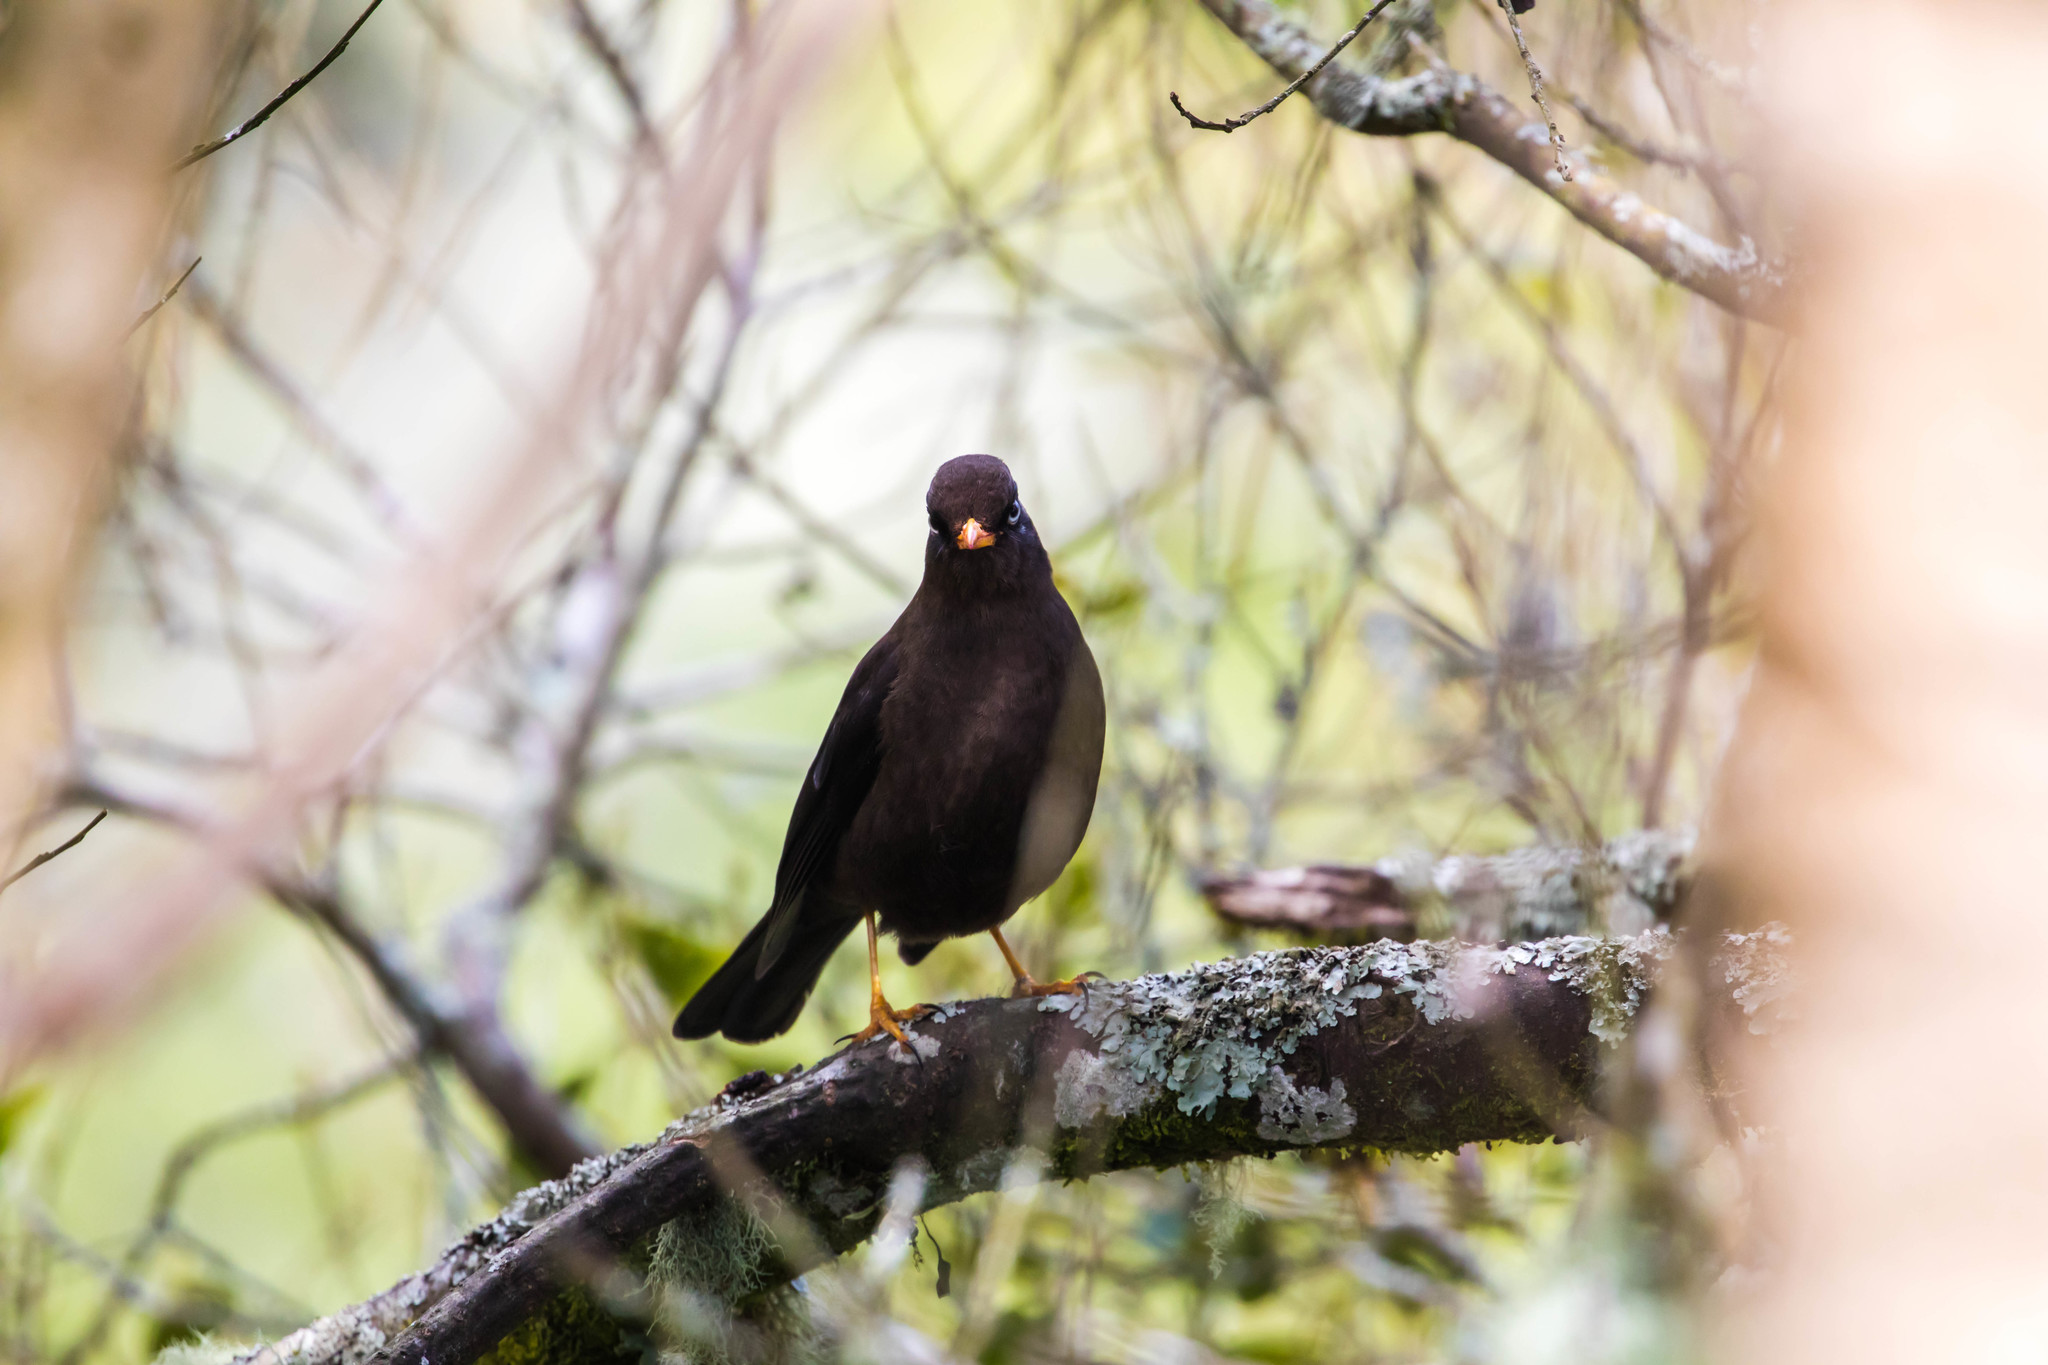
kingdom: Animalia
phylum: Chordata
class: Aves
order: Passeriformes
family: Turdidae
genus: Turdus
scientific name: Turdus nigrescens
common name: Sooty thrush
